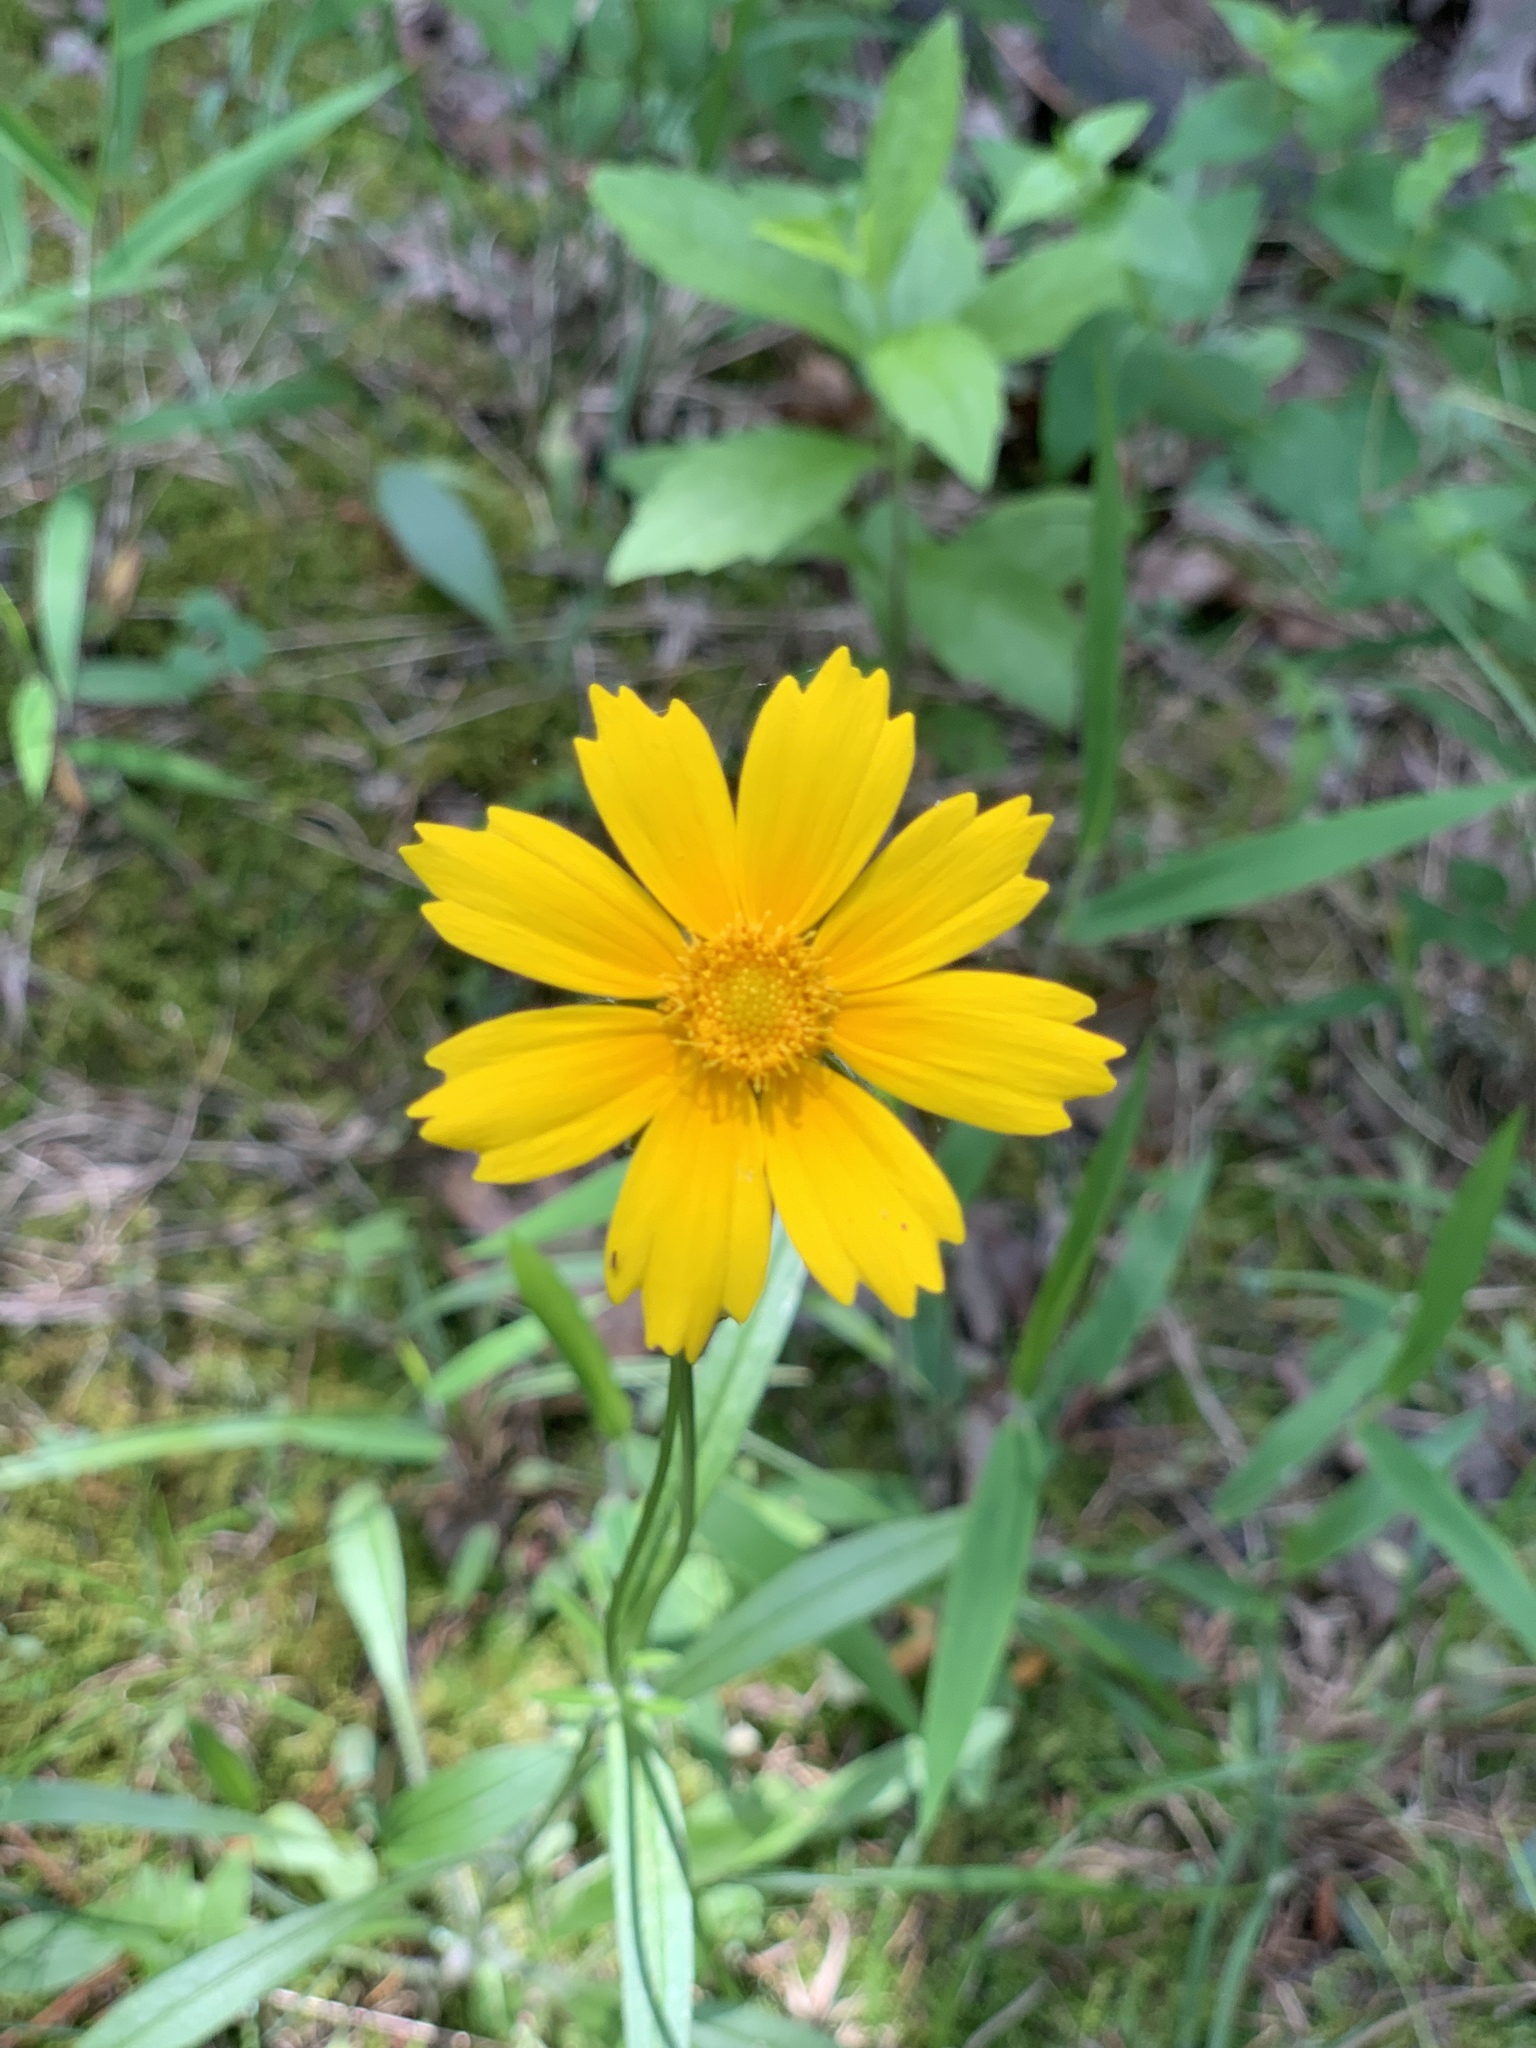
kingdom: Plantae
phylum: Tracheophyta
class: Magnoliopsida
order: Asterales
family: Asteraceae
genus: Coreopsis
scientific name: Coreopsis lanceolata
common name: Garden coreopsis
